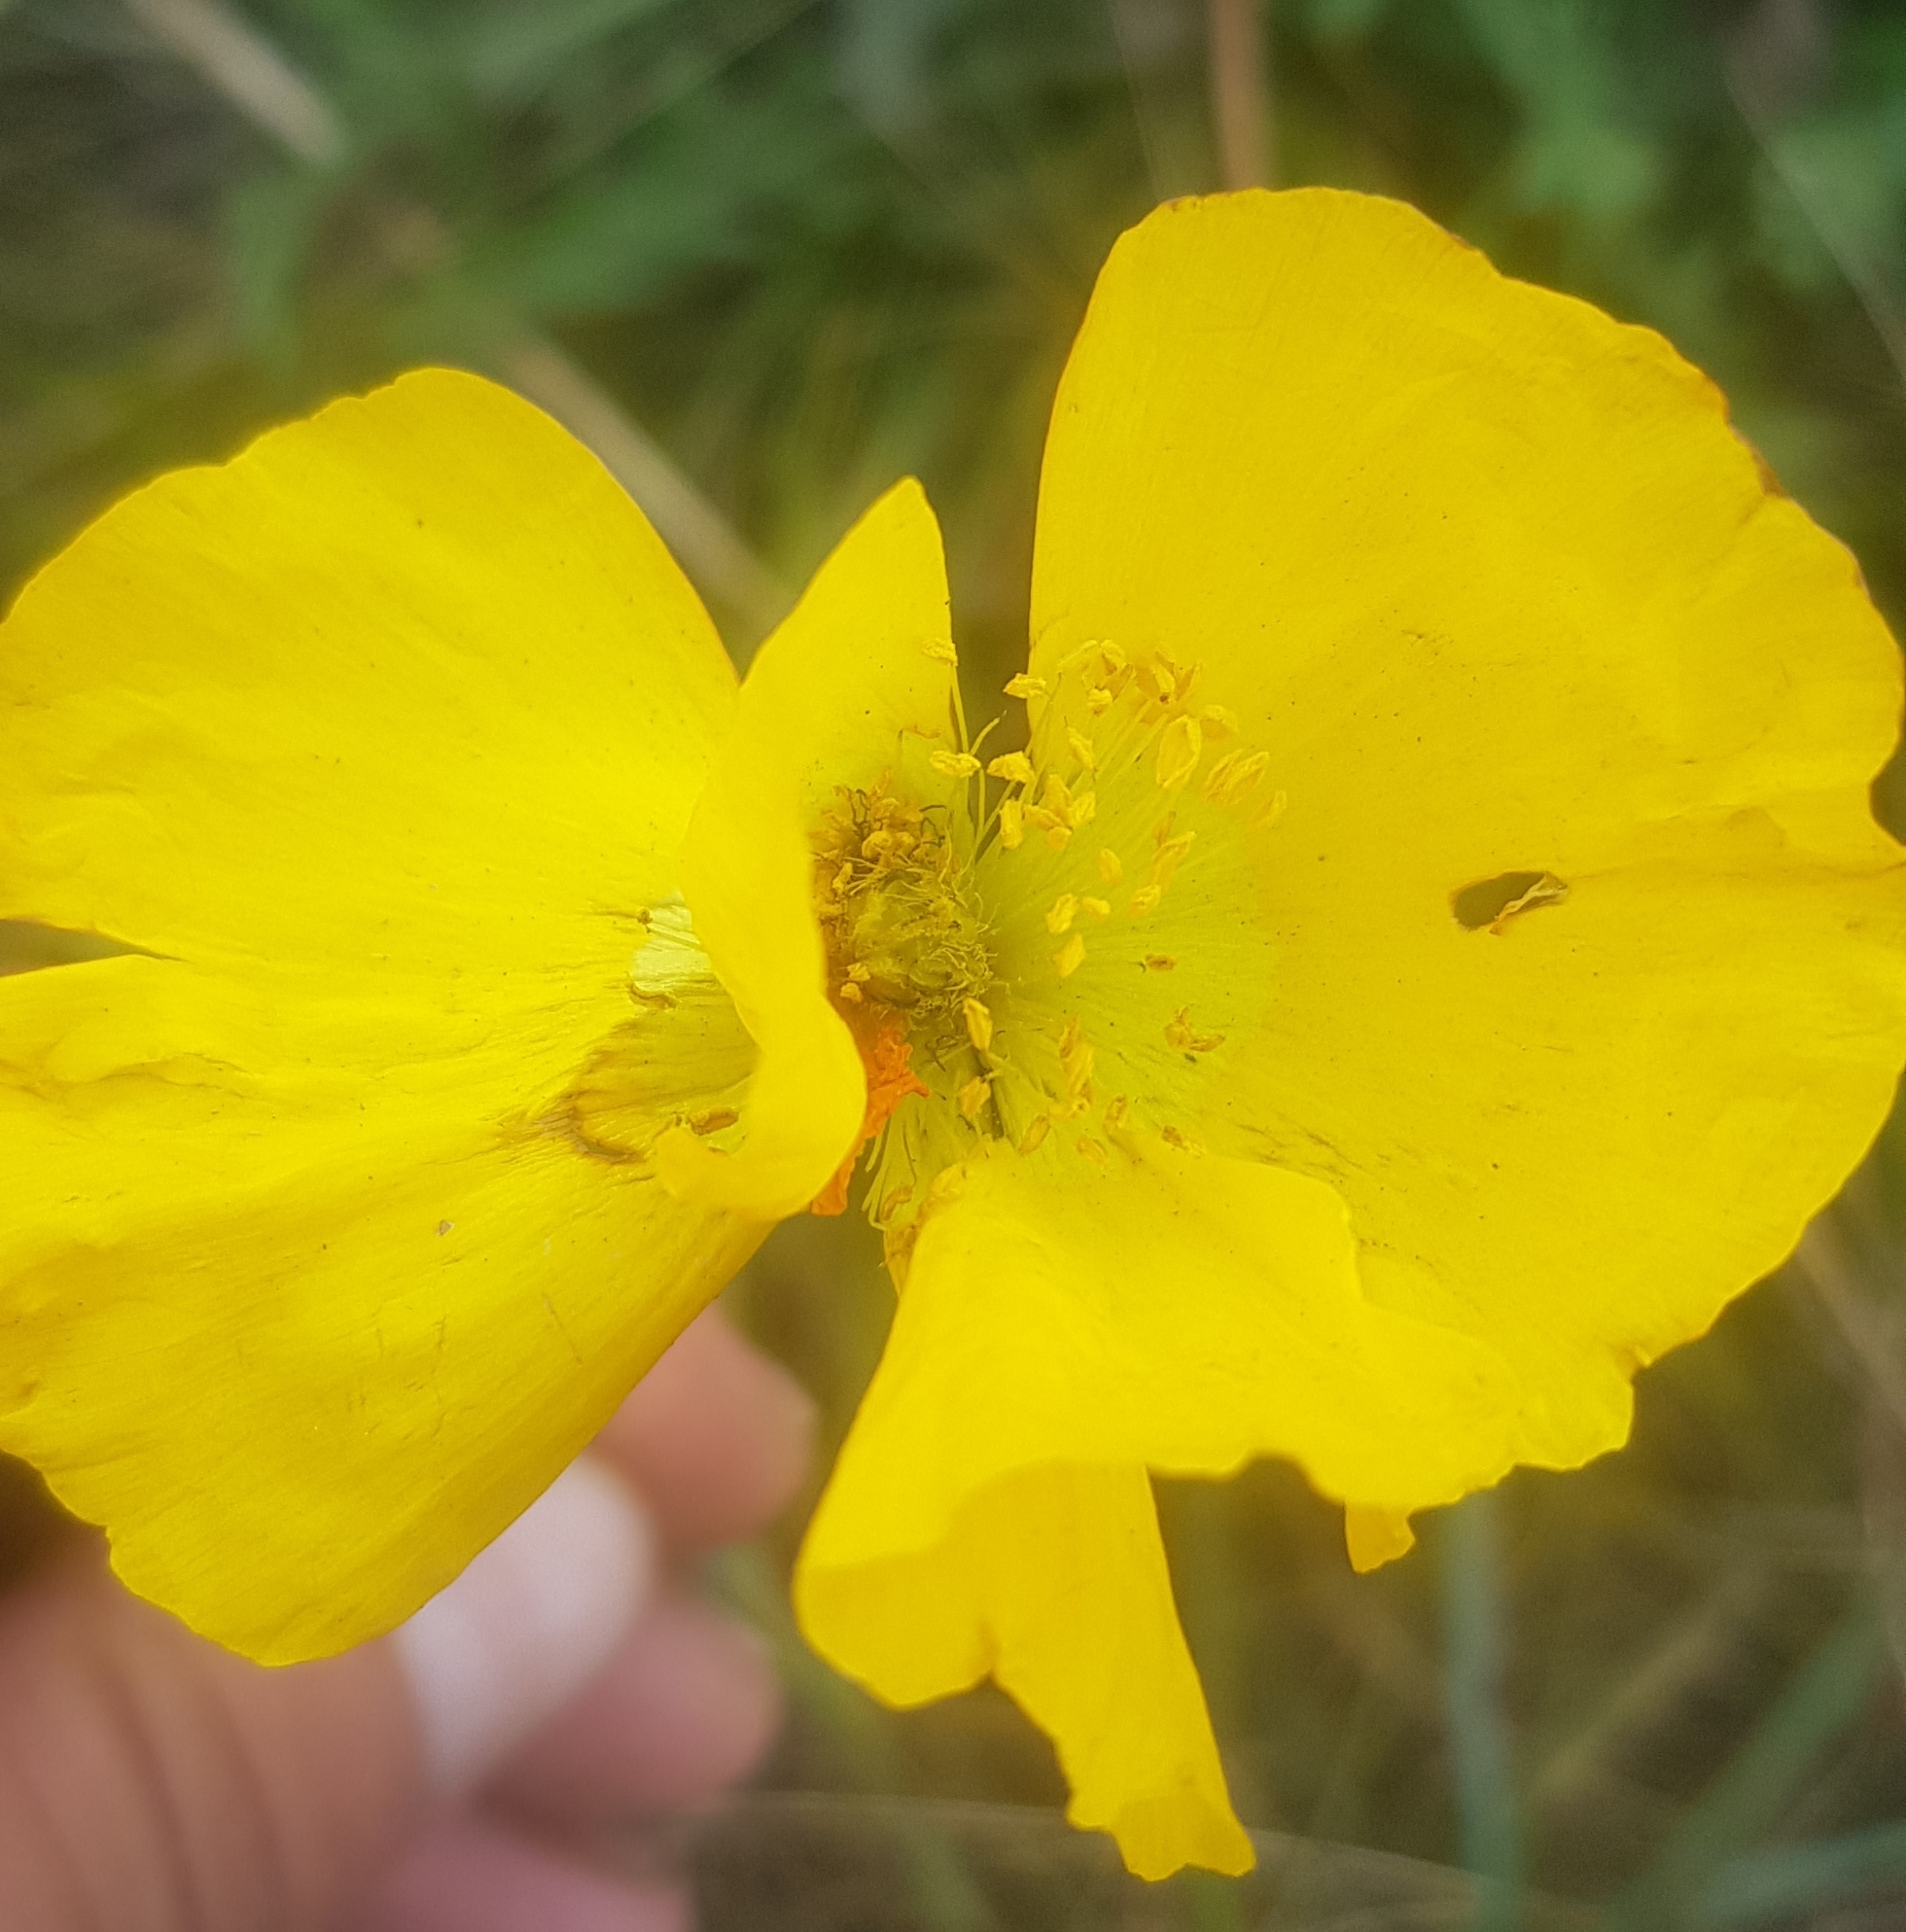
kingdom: Plantae
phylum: Tracheophyta
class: Magnoliopsida
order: Ranunculales
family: Papaveraceae
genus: Papaver
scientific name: Papaver nudicaule
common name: Arctic poppy
